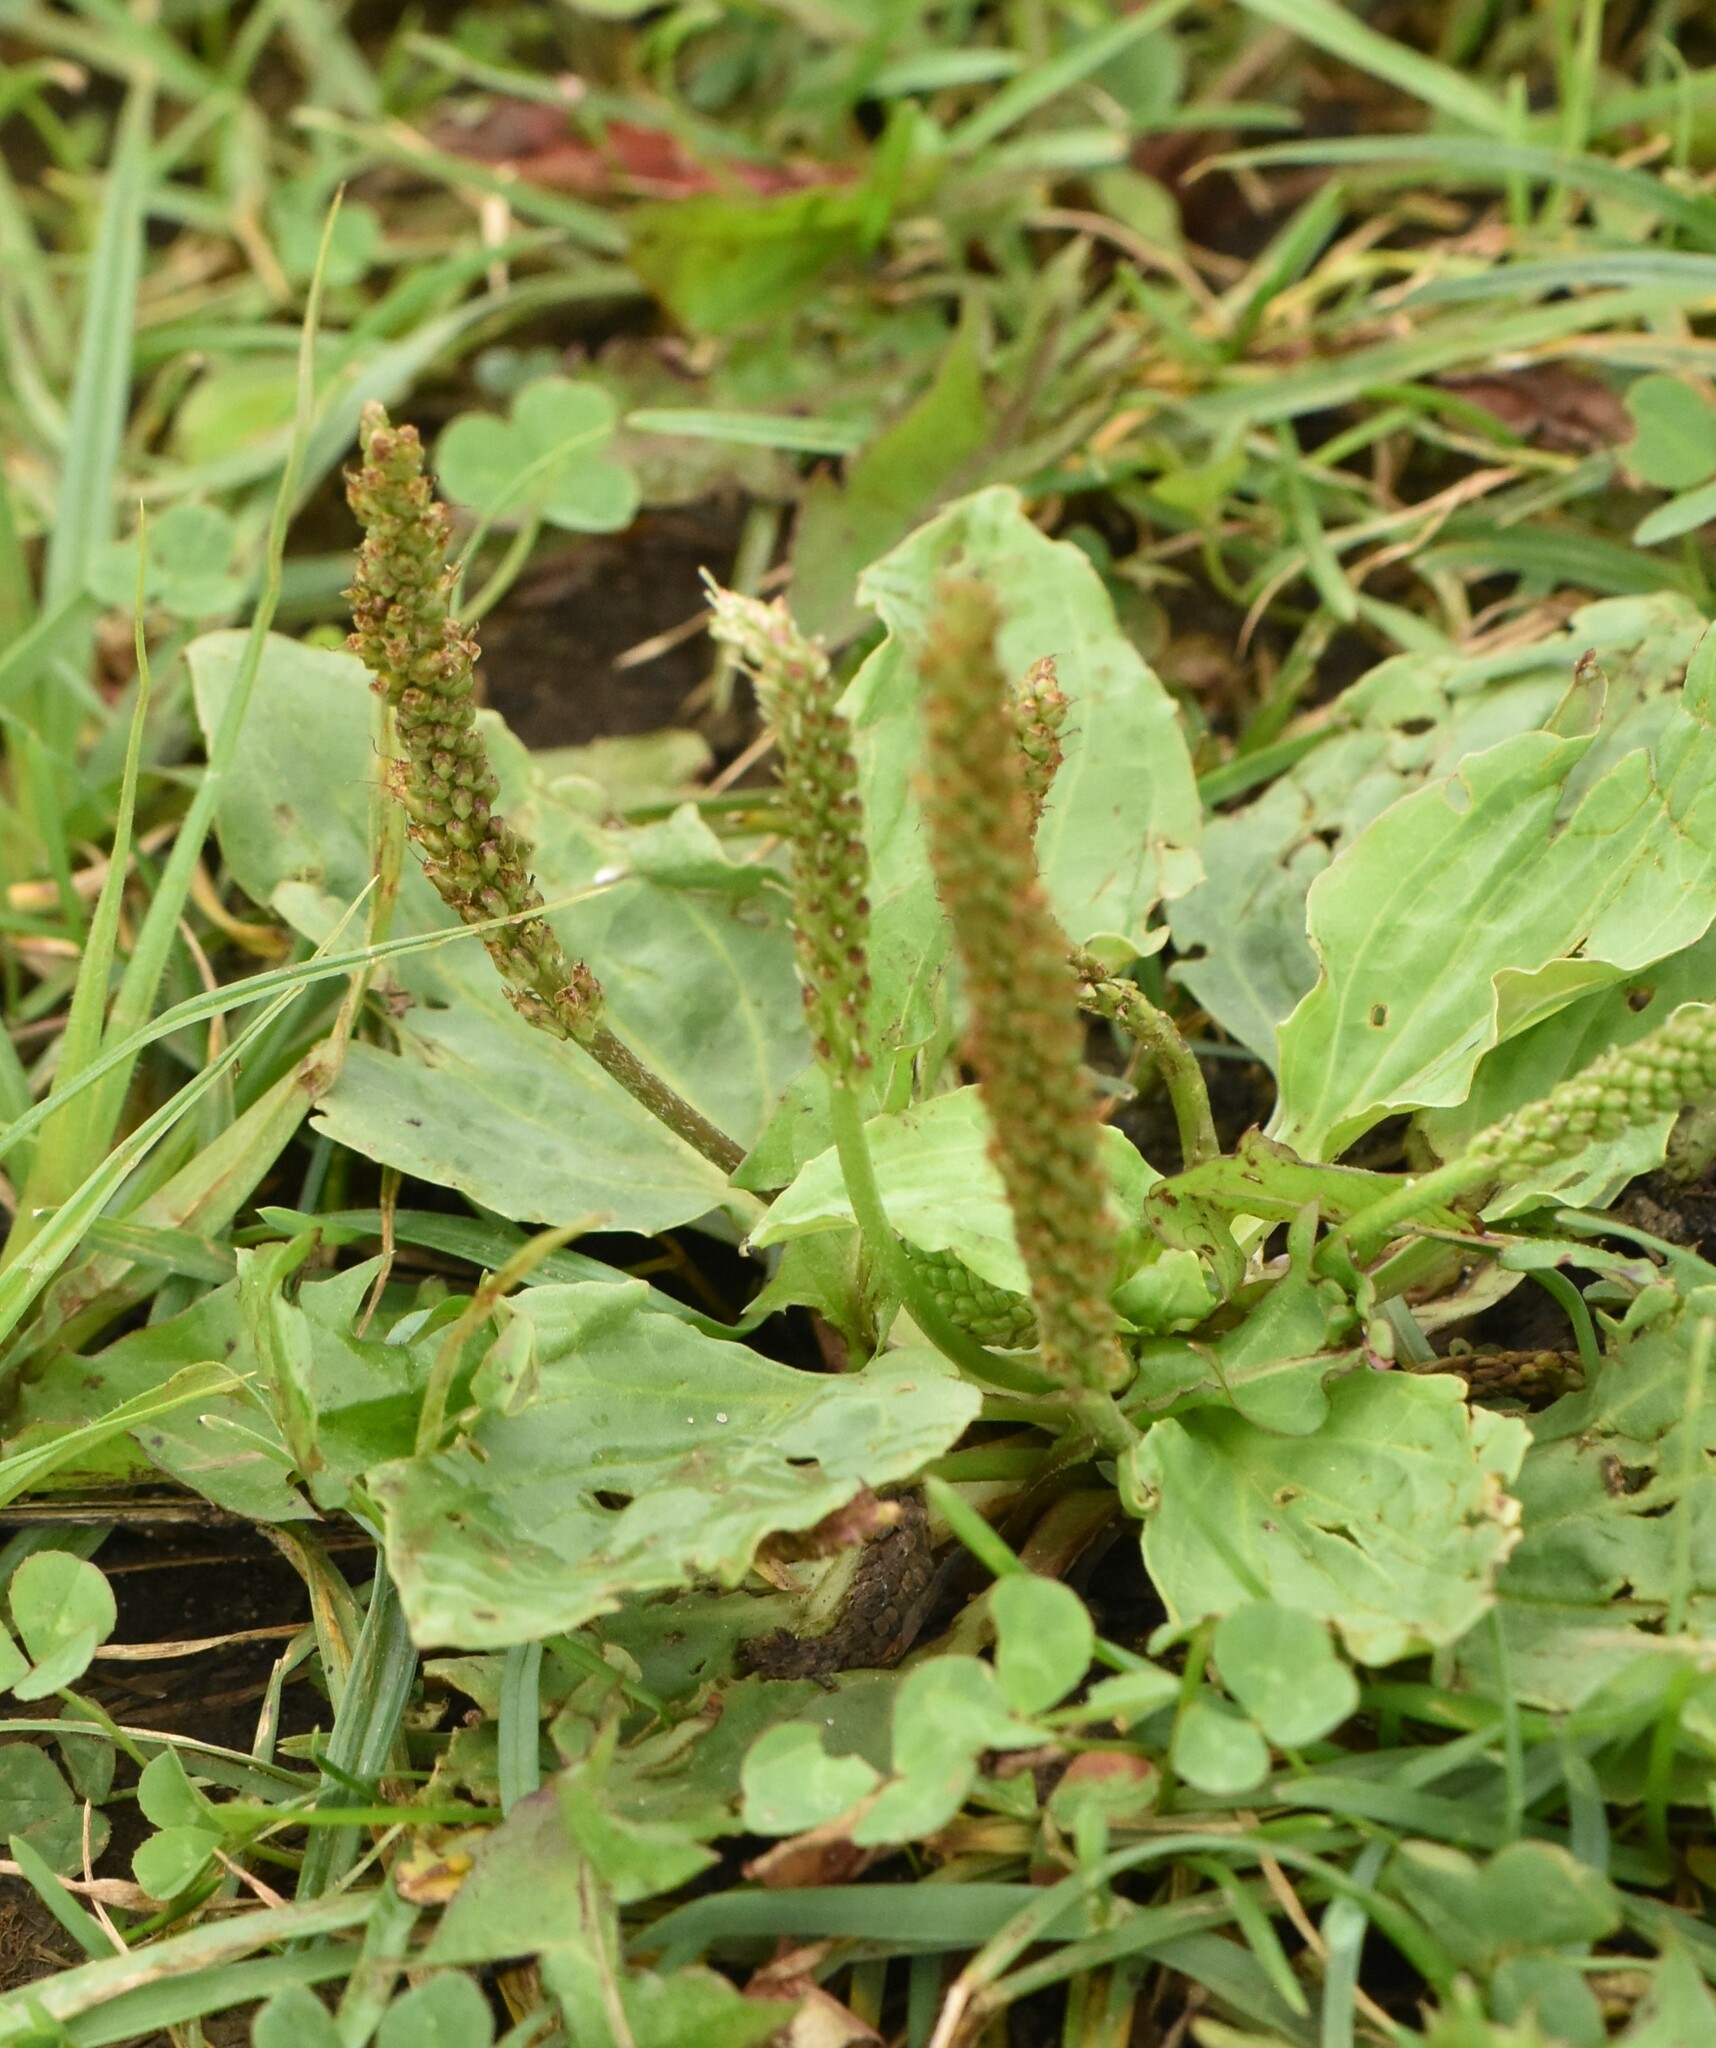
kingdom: Plantae
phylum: Tracheophyta
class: Magnoliopsida
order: Lamiales
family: Plantaginaceae
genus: Plantago
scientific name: Plantago major
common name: Common plantain
